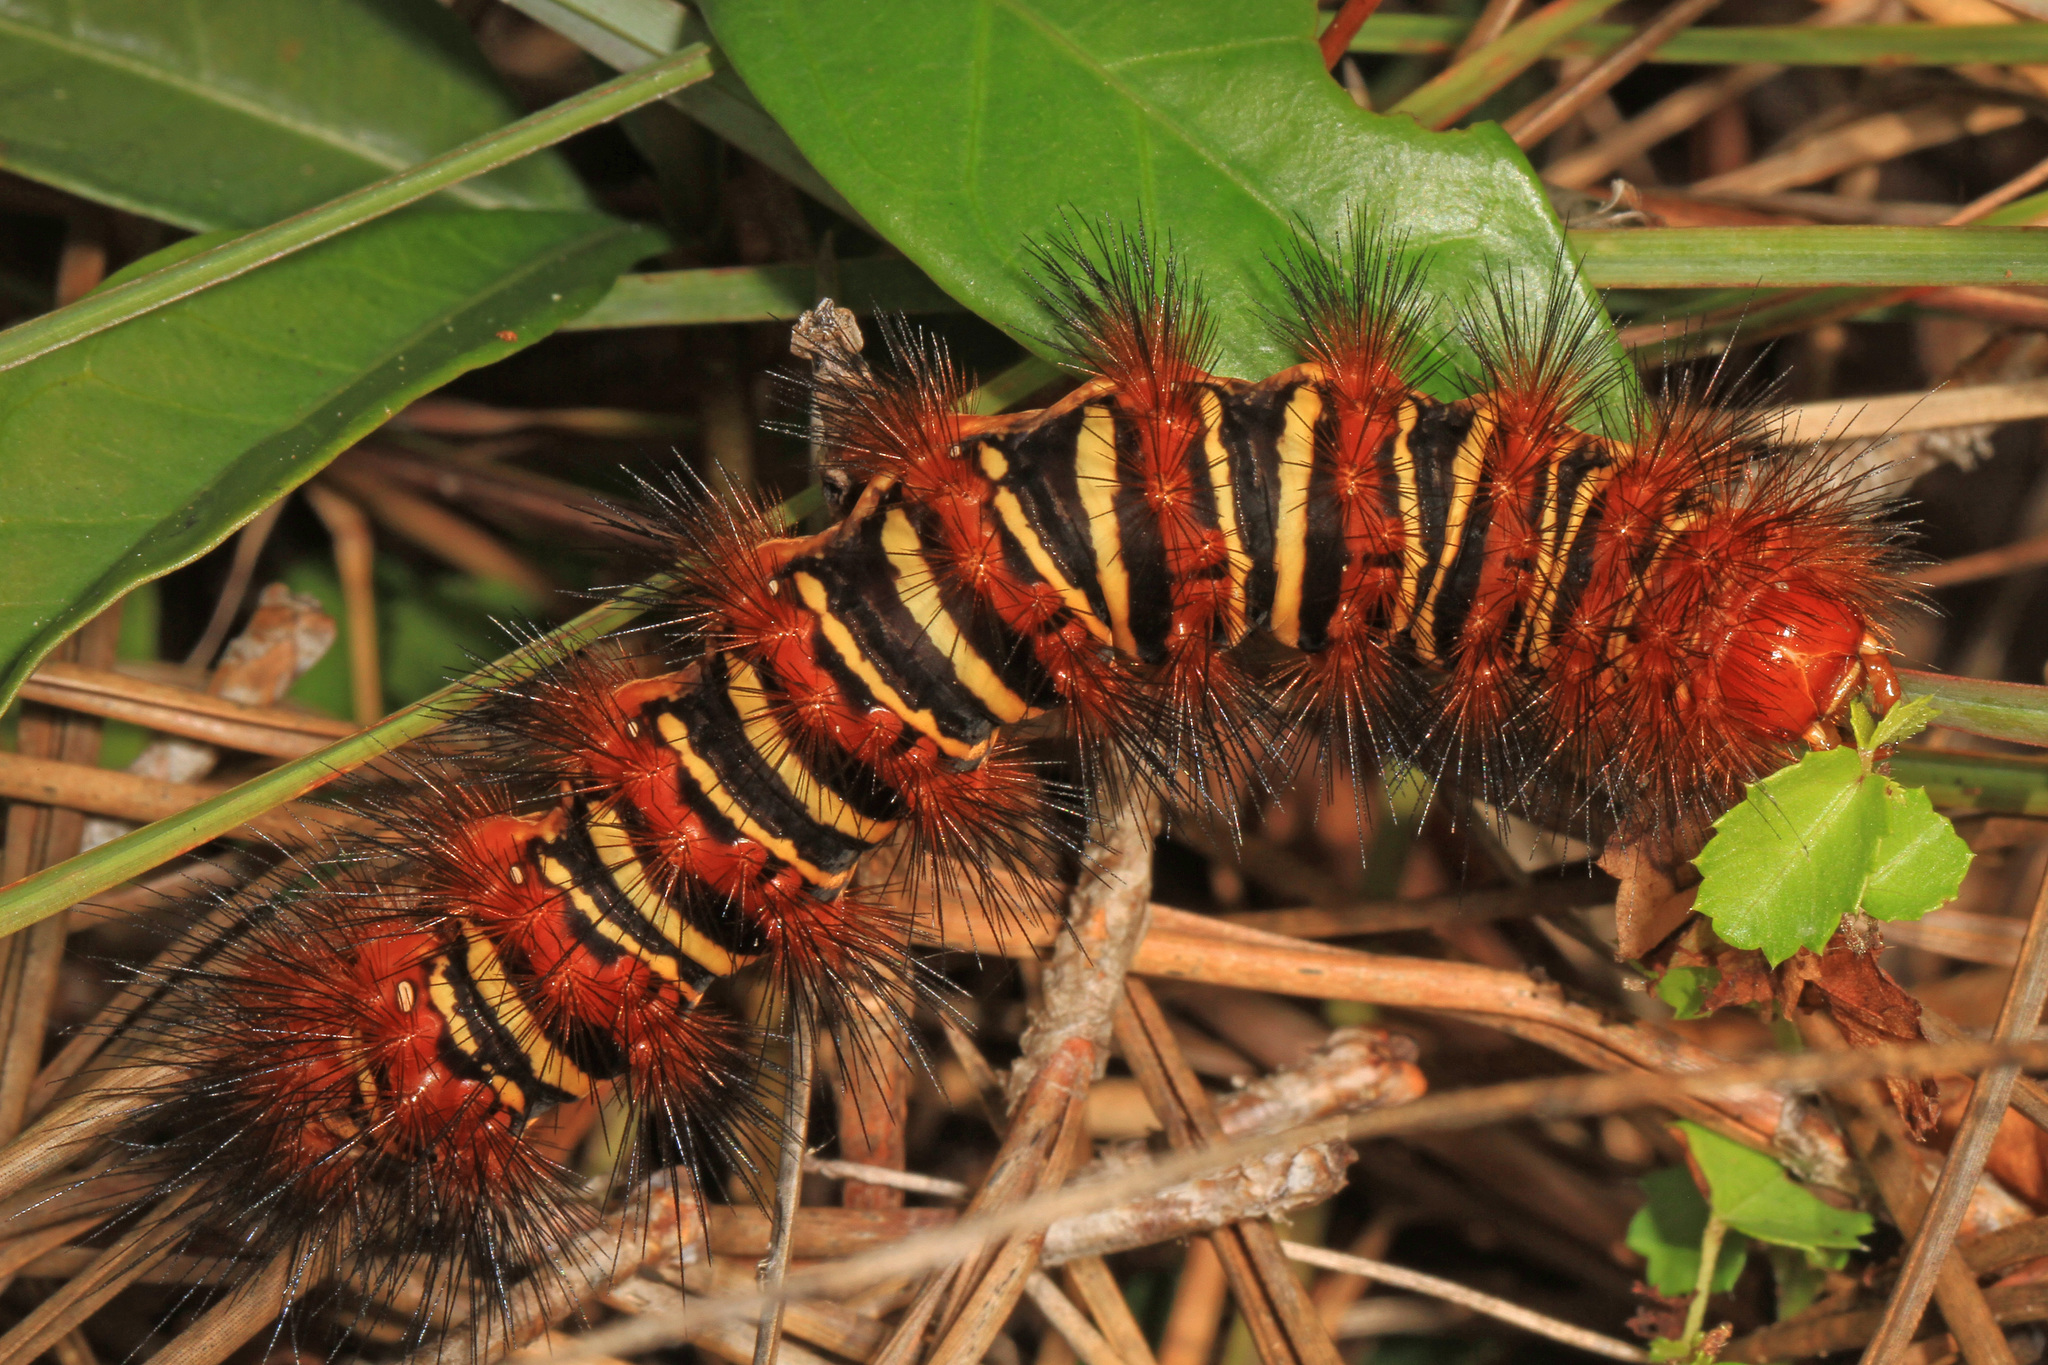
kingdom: Animalia
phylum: Arthropoda
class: Insecta
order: Lepidoptera
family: Erebidae
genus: Seirarctia
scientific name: Seirarctia echo
